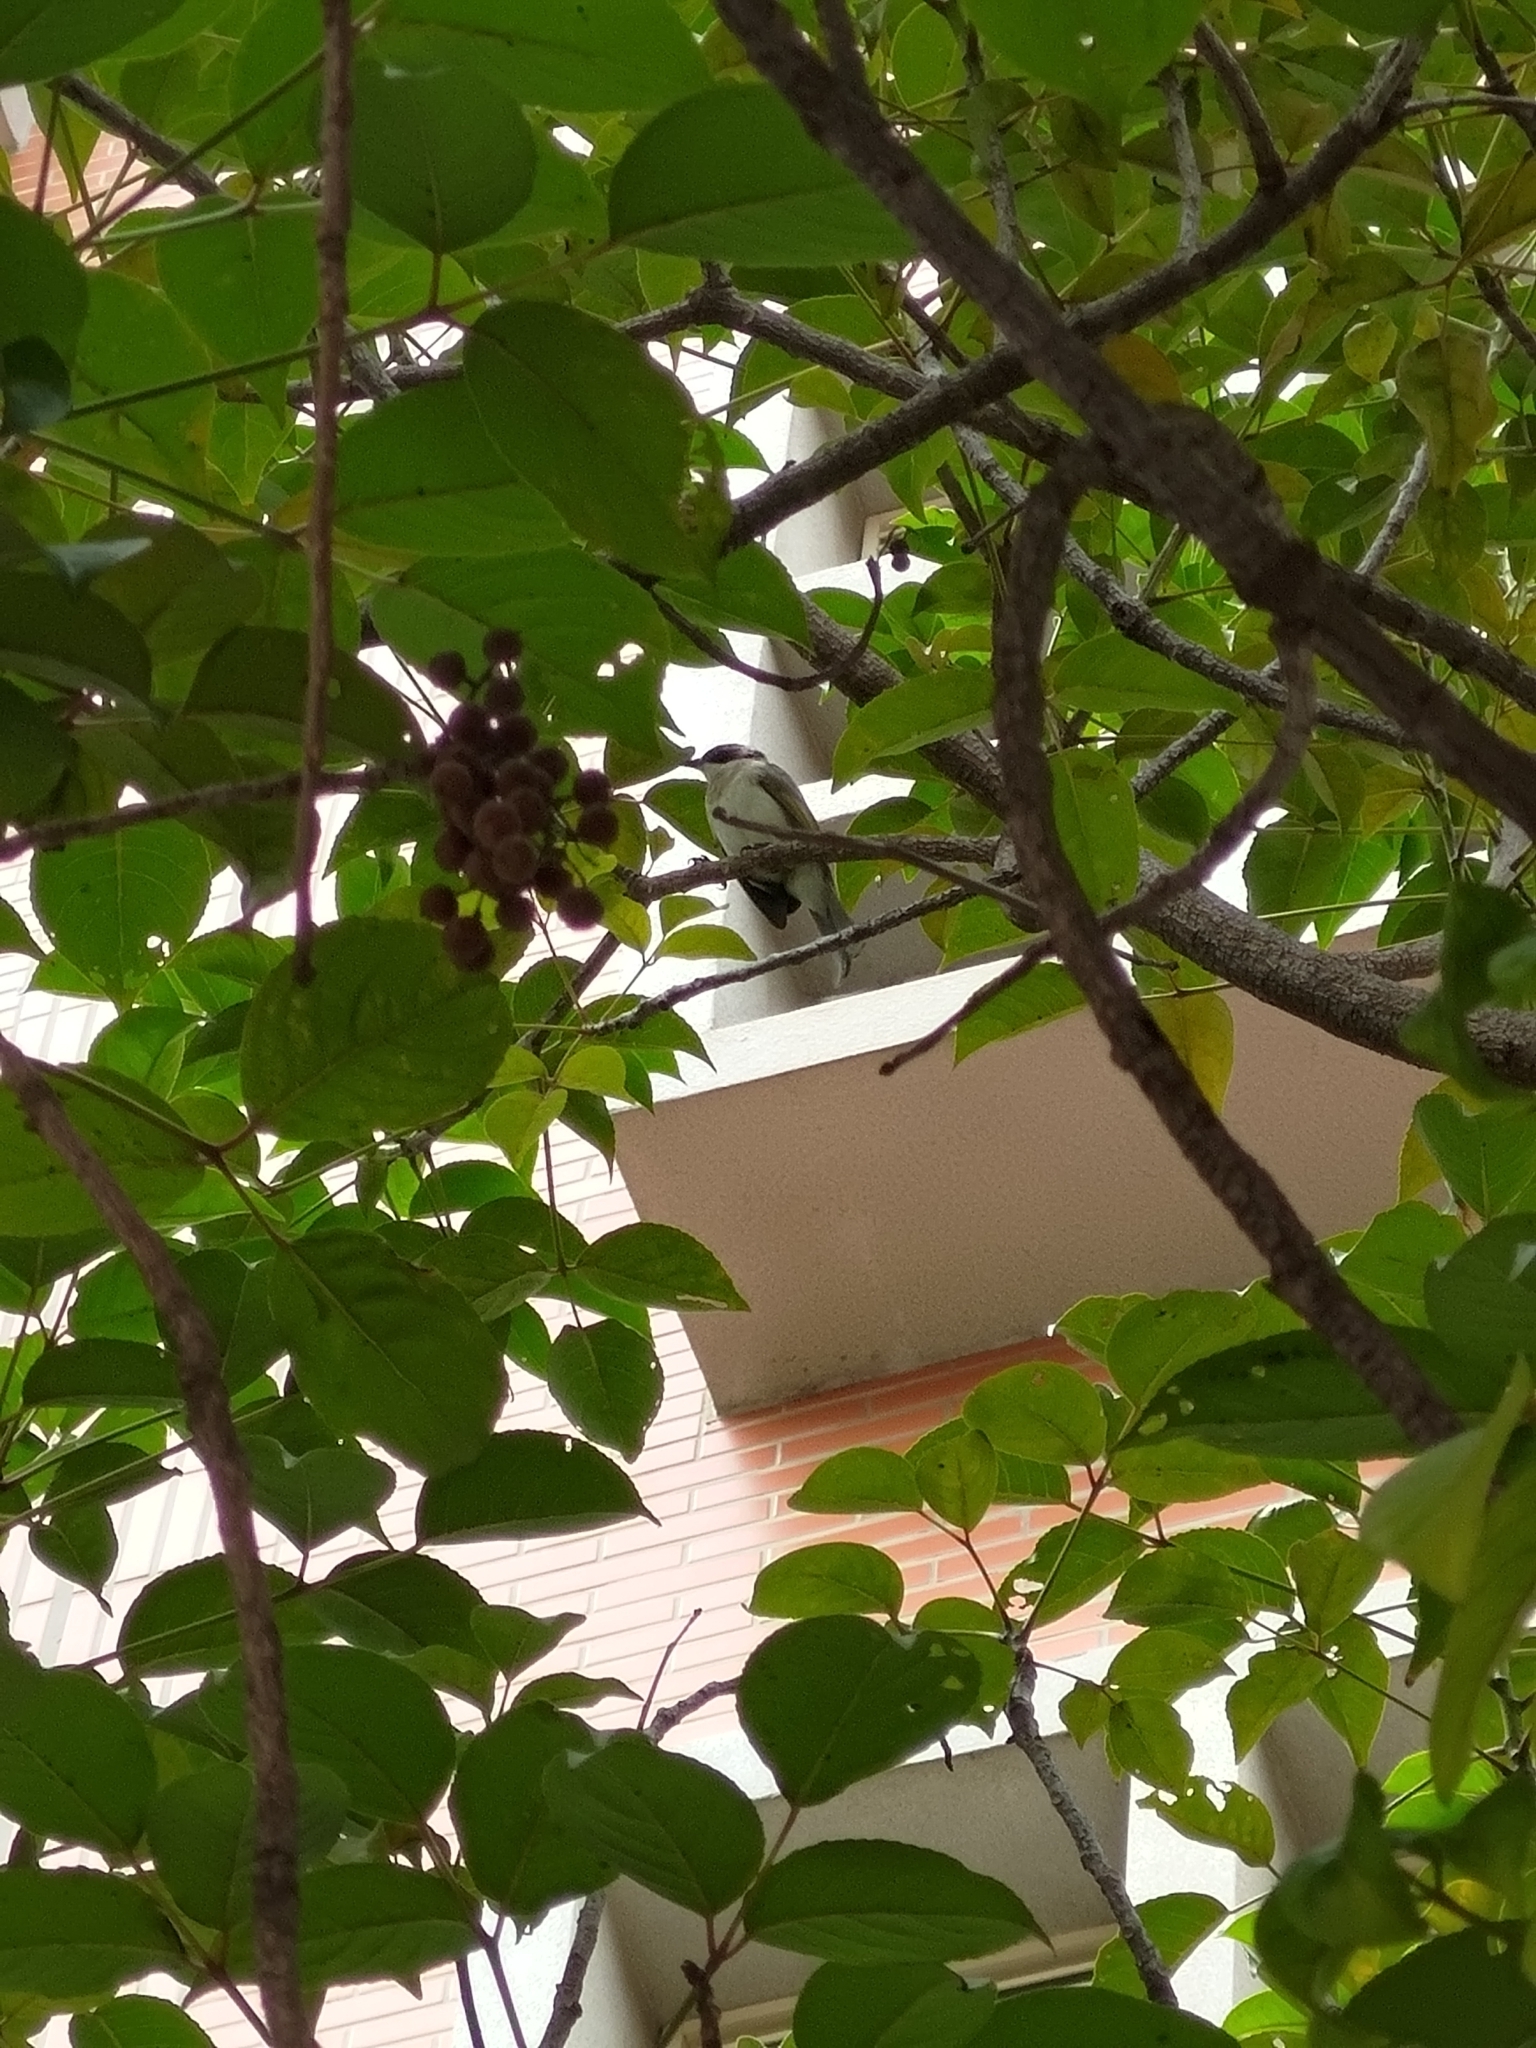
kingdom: Animalia
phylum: Chordata
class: Aves
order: Passeriformes
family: Pycnonotidae
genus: Pycnonotus
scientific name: Pycnonotus sinensis
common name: Light-vented bulbul
